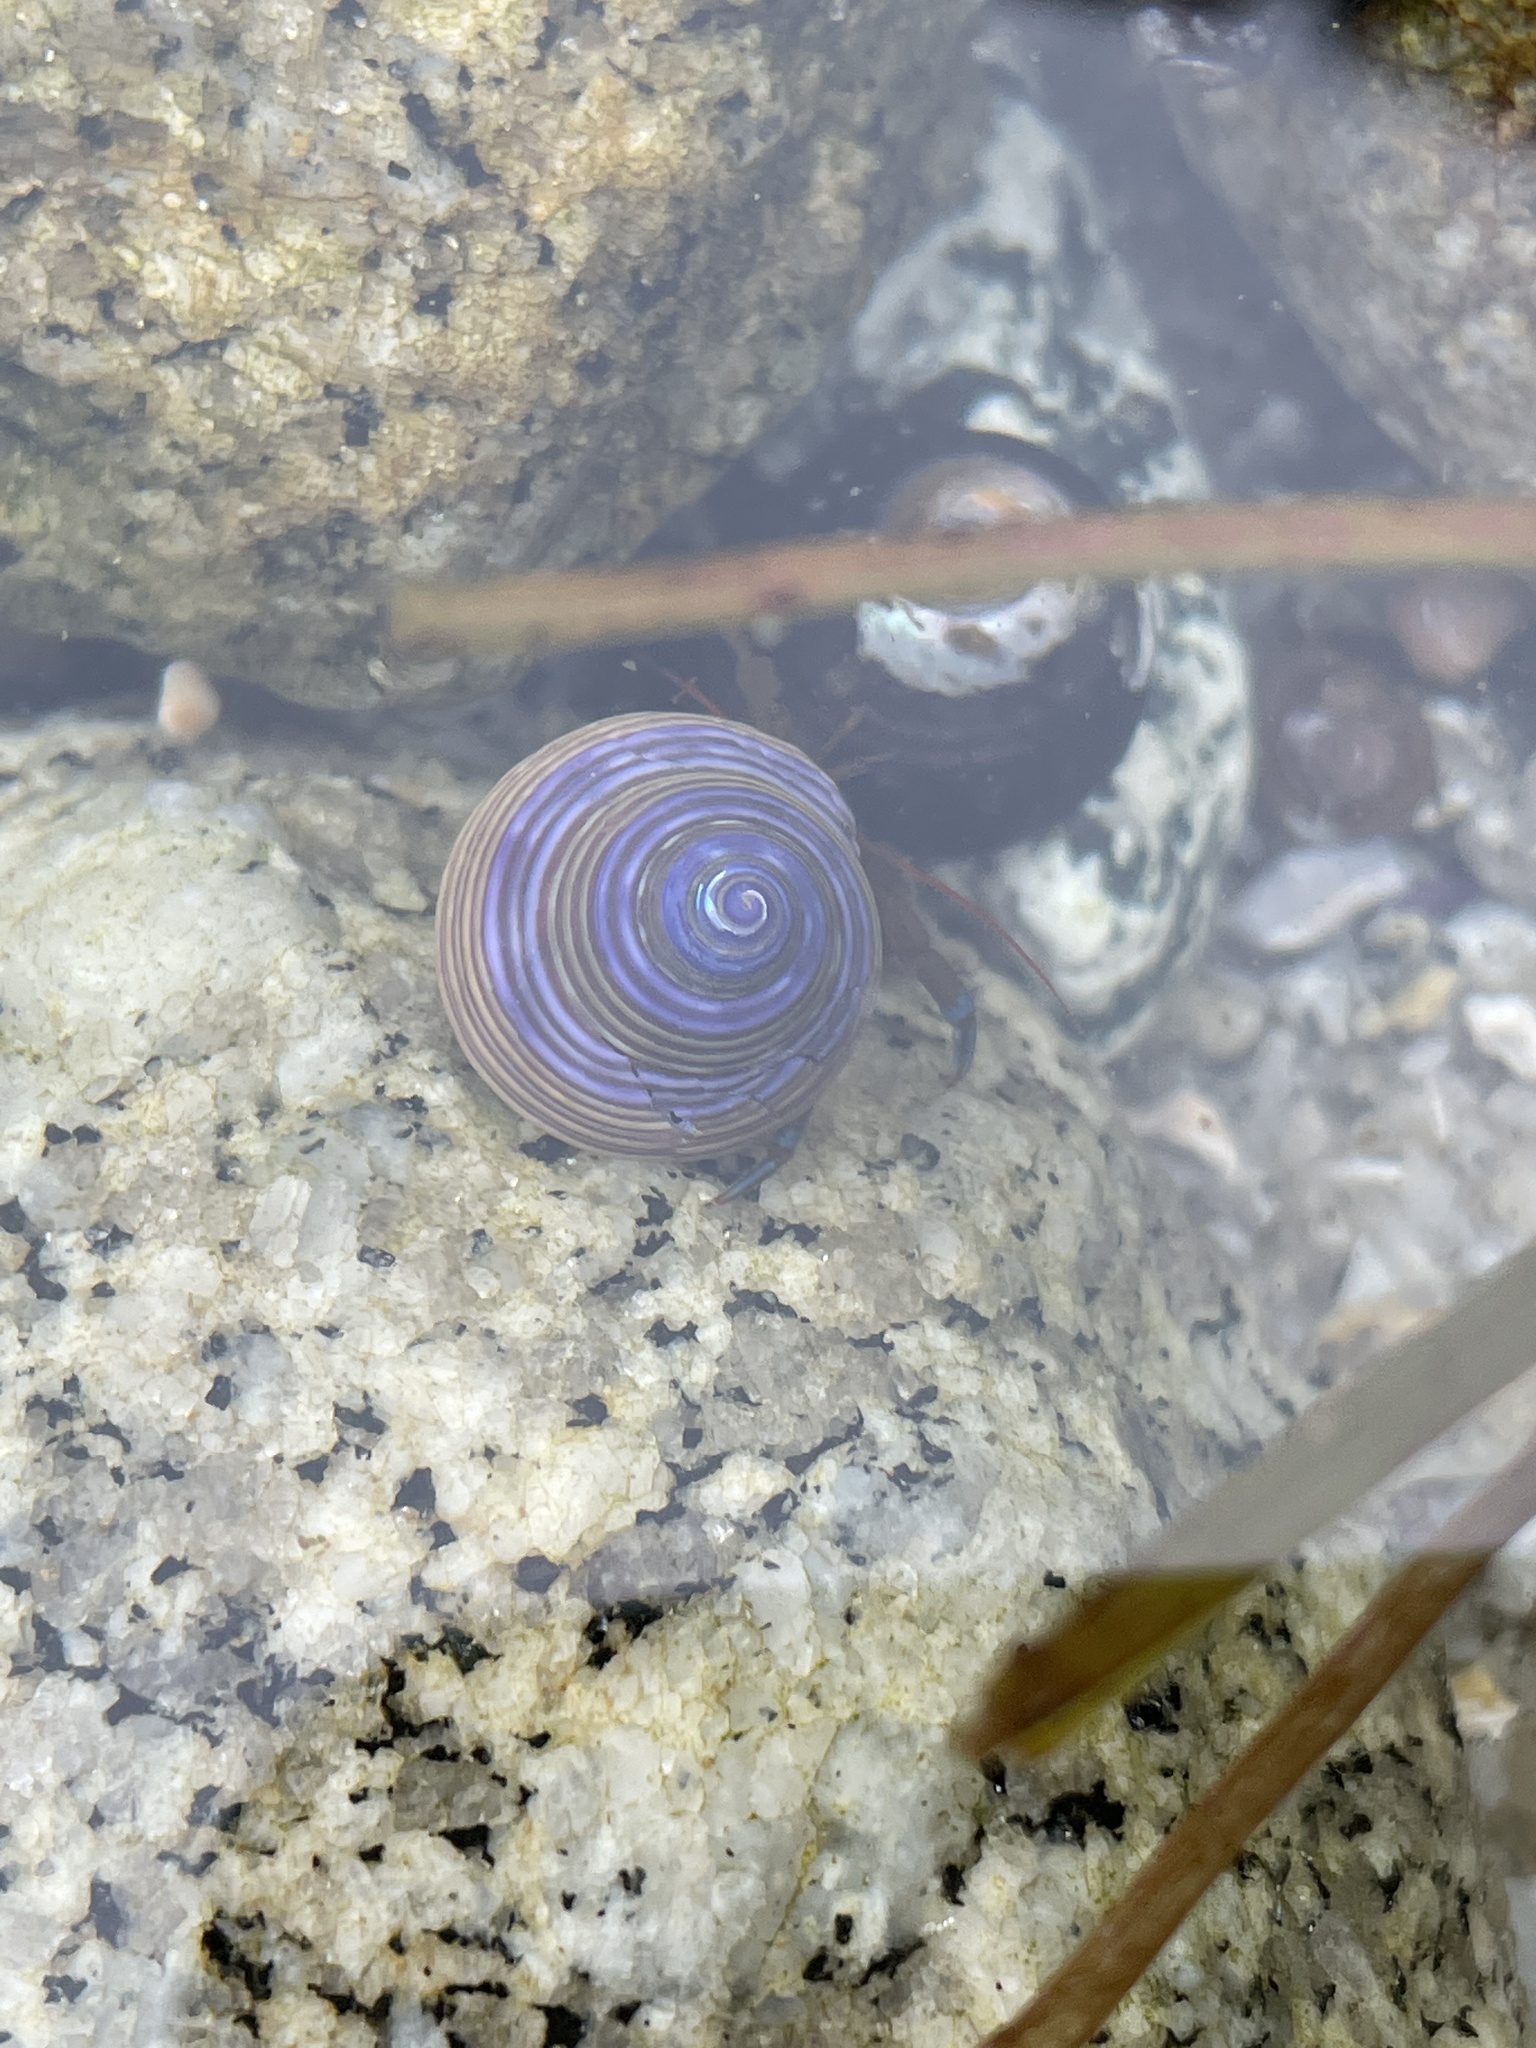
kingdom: Animalia
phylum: Mollusca
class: Gastropoda
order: Trochida
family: Calliostomatidae
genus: Calliostoma
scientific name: Calliostoma ligatum
